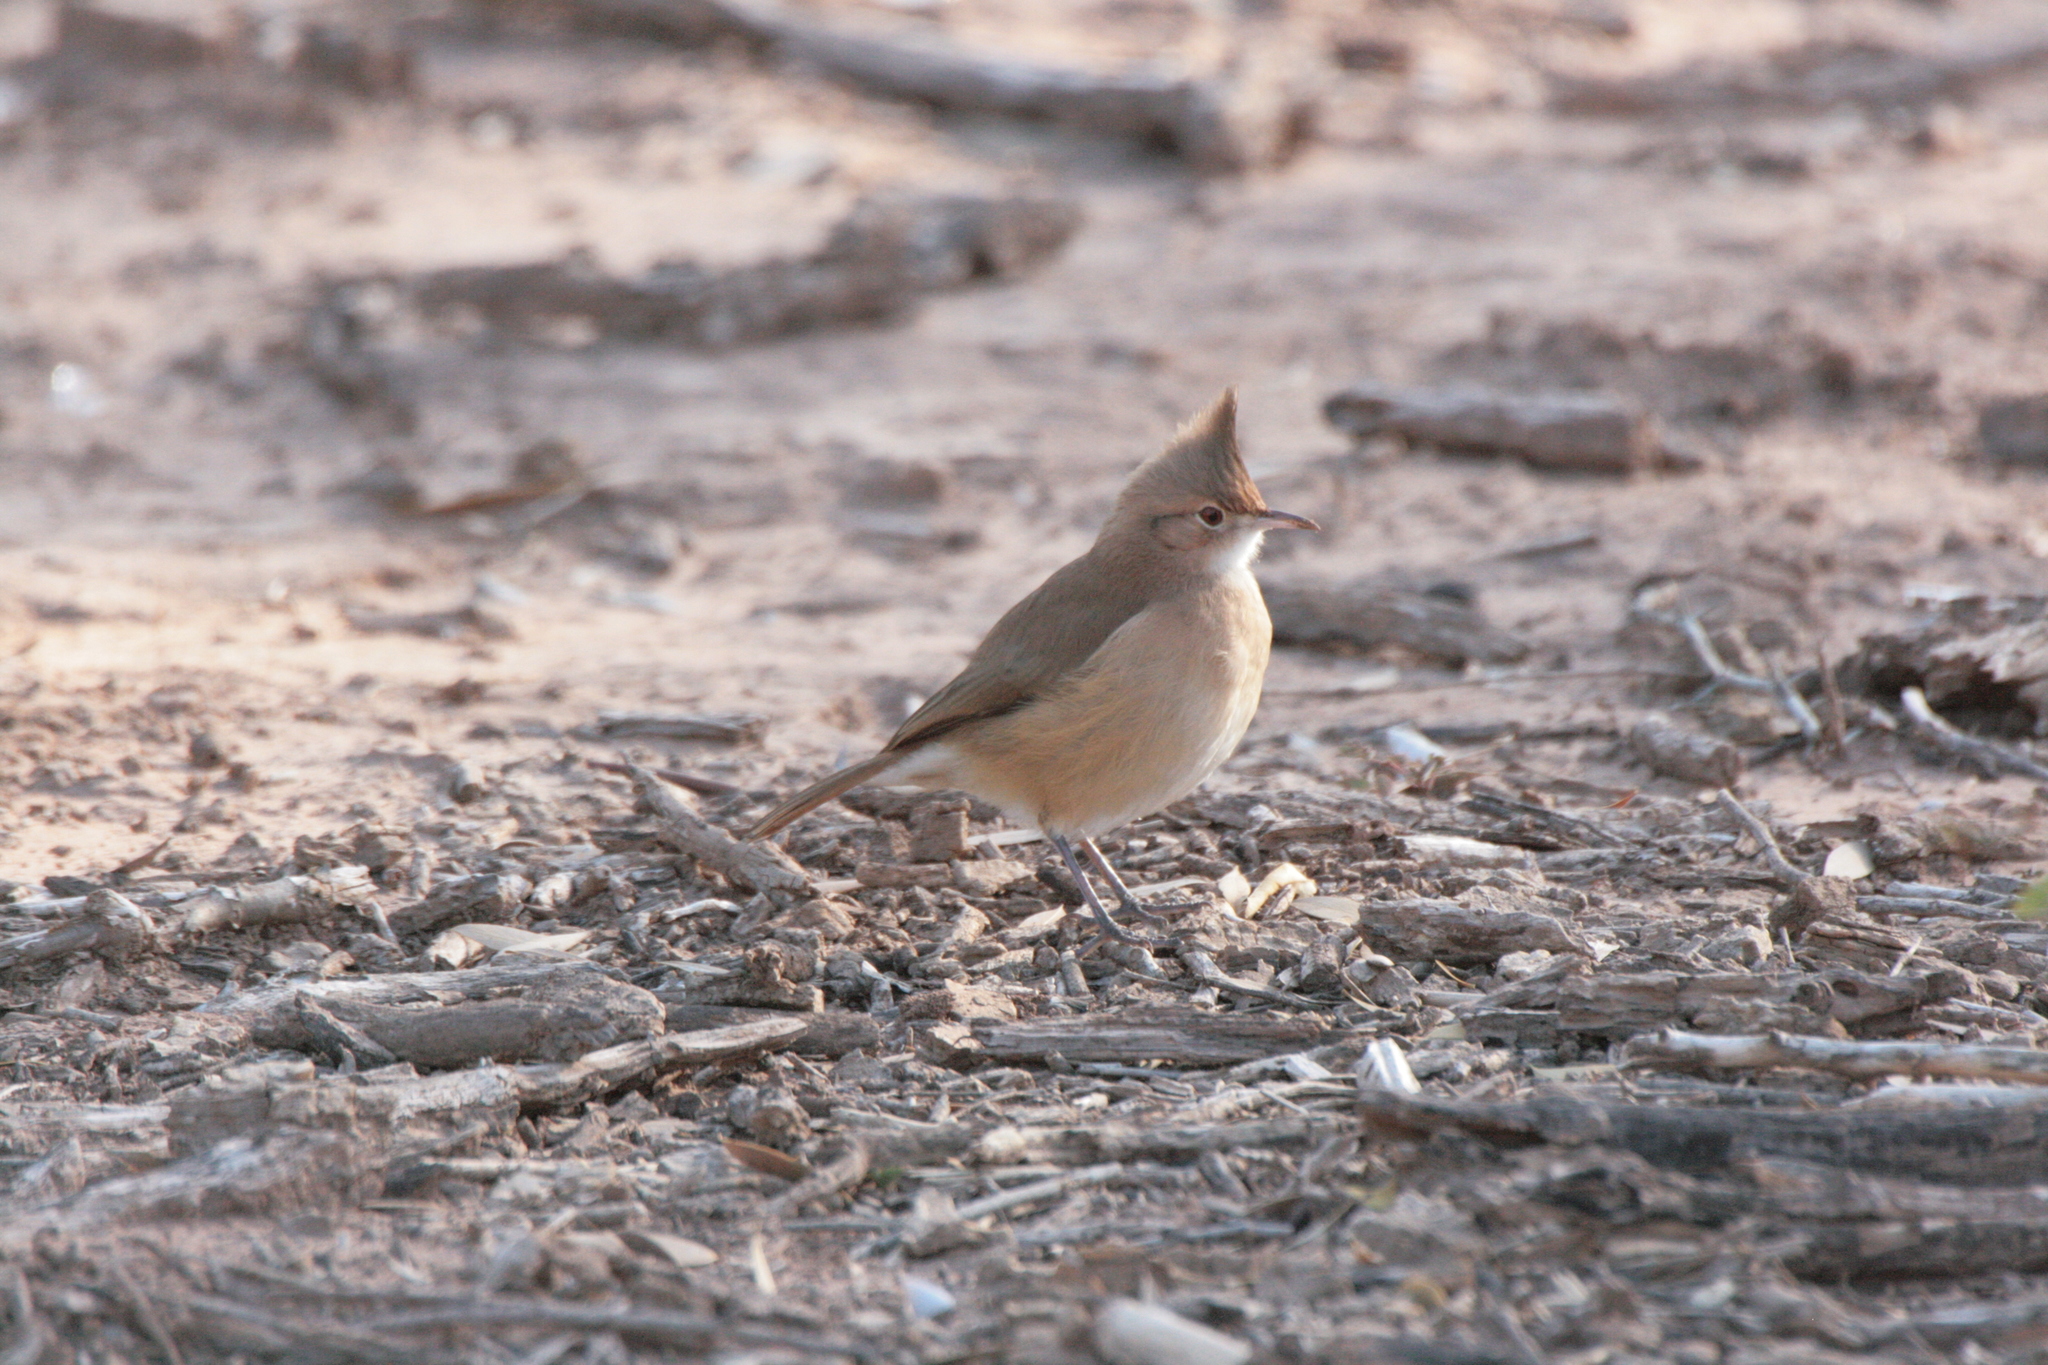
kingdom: Animalia
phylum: Chordata
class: Aves
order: Passeriformes
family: Furnariidae
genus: Furnarius
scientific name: Furnarius cristatus
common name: Crested hornero
